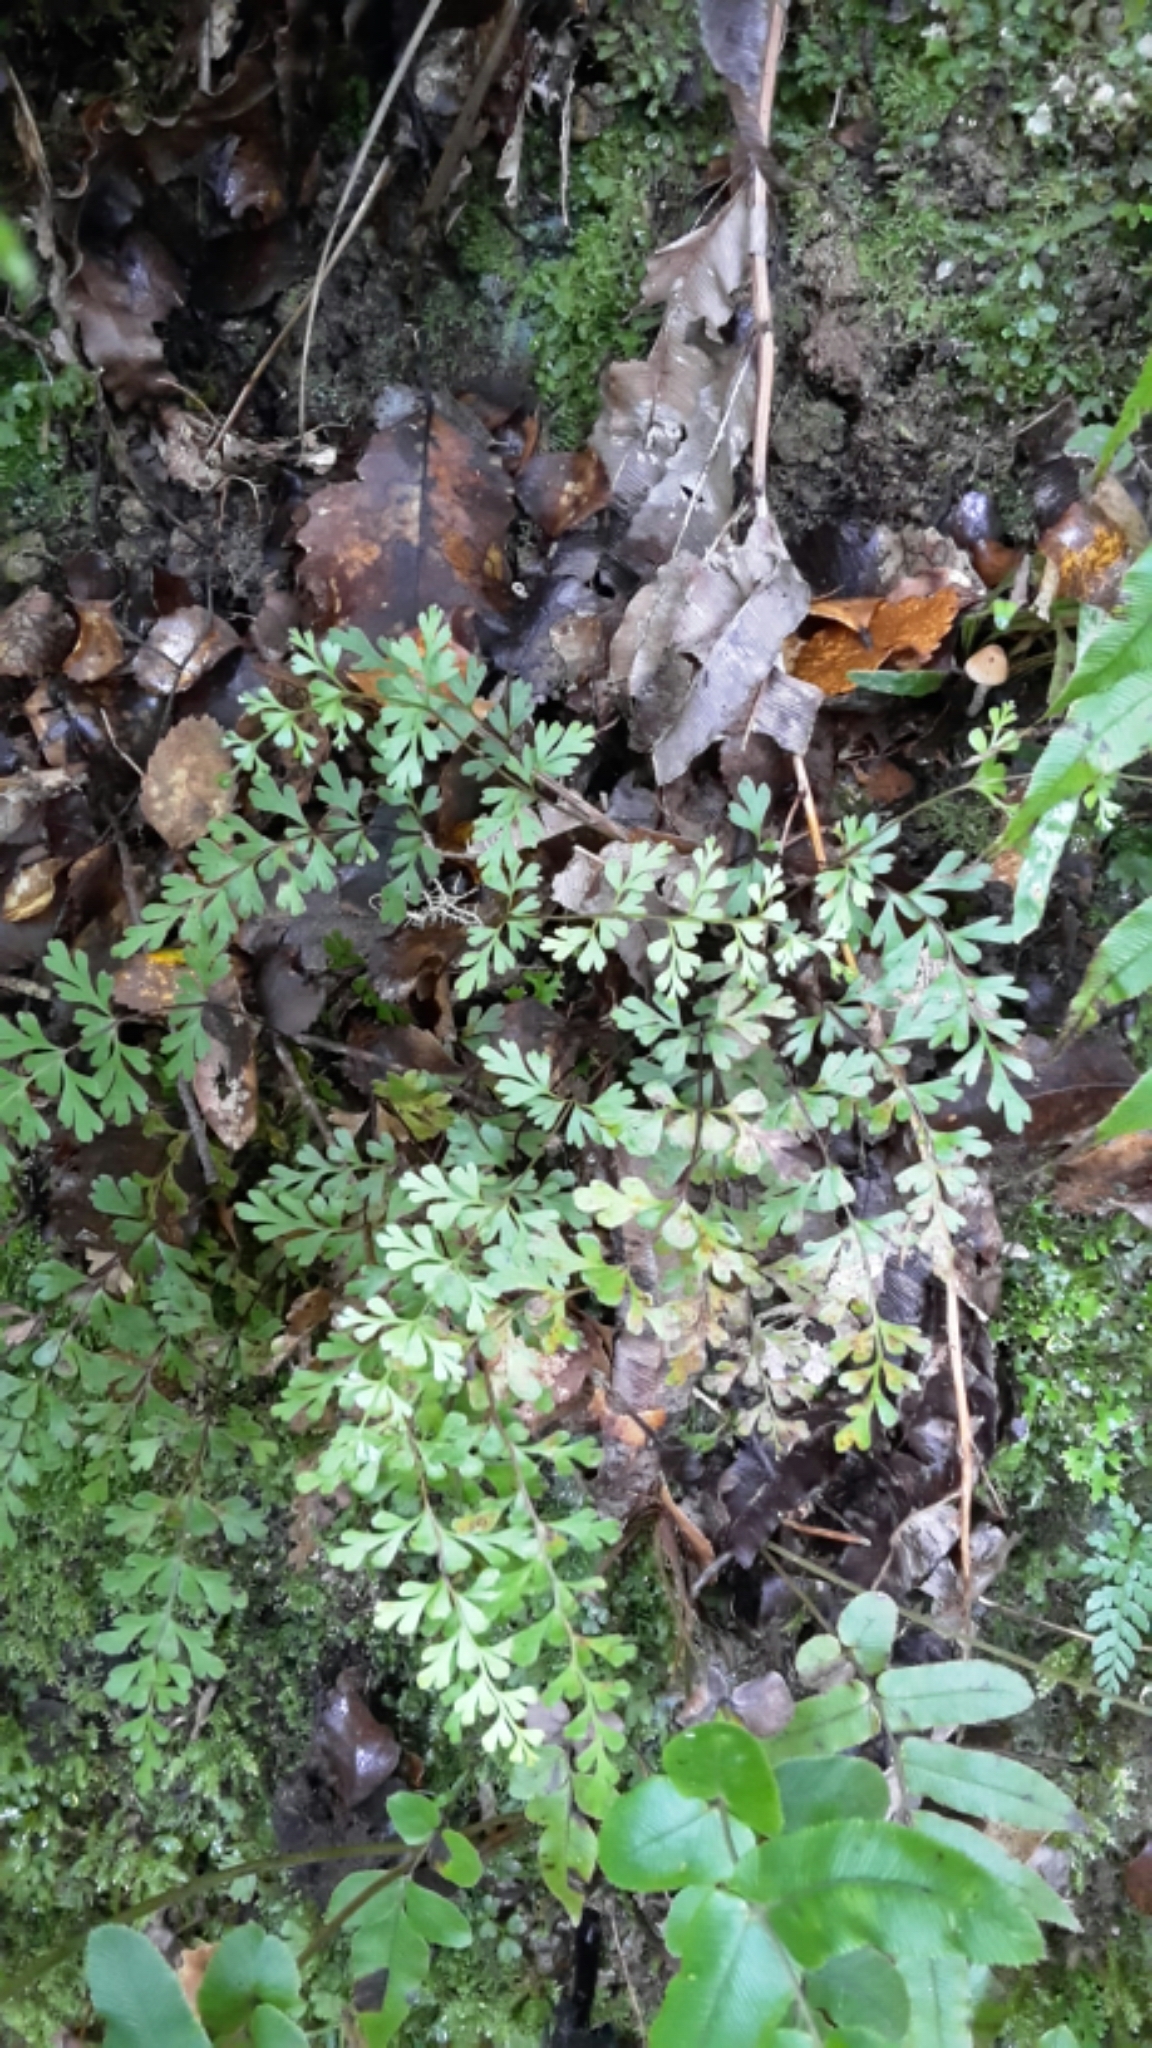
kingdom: Plantae
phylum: Tracheophyta
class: Polypodiopsida
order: Polypodiales
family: Lindsaeaceae
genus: Lindsaea
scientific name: Lindsaea trichomanoides
